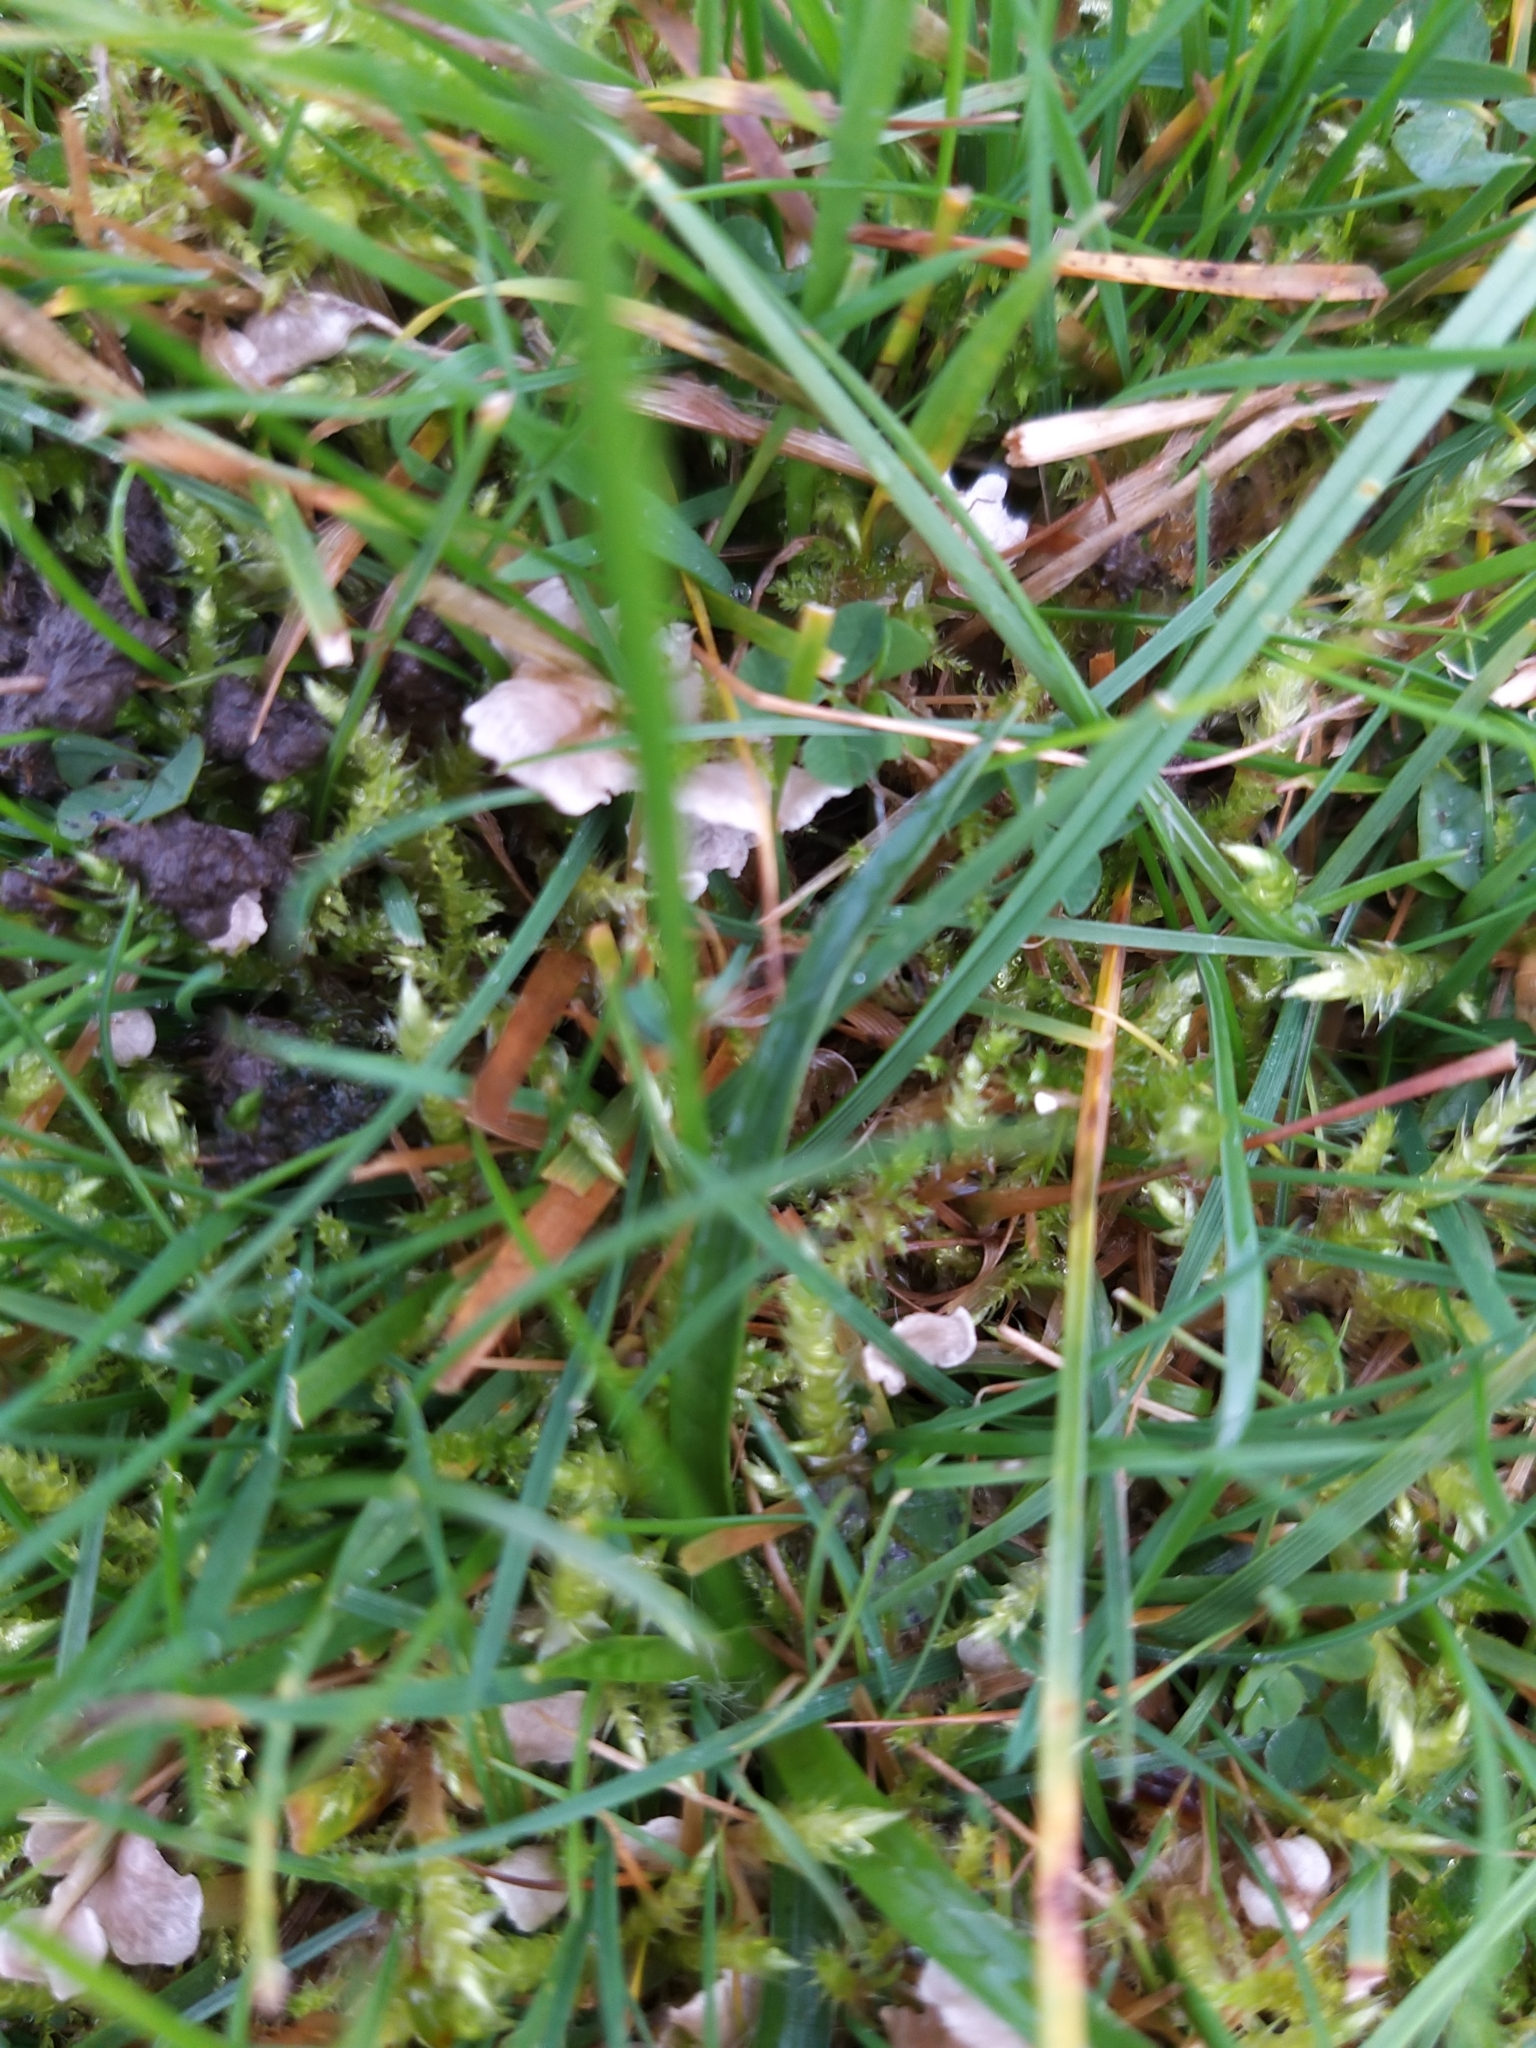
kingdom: Fungi
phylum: Basidiomycota
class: Agaricomycetes
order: Agaricales
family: Hygrophoraceae
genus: Arrhenia
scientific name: Arrhenia retiruga
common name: Small moss oysterling
